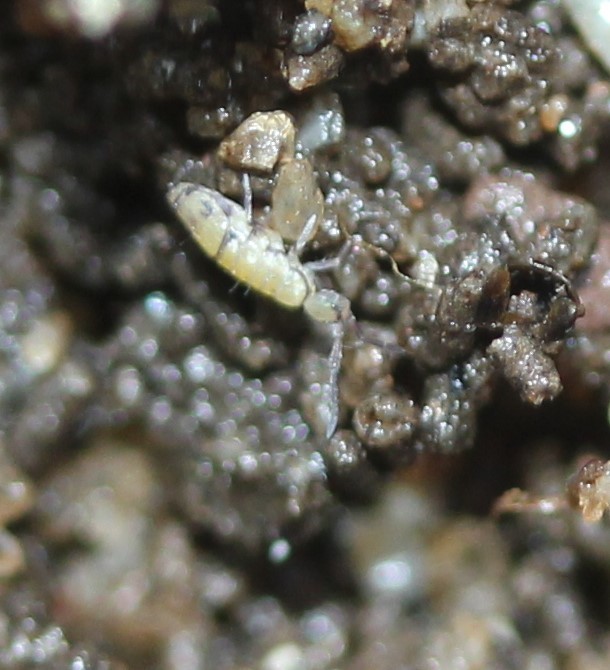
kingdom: Animalia
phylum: Arthropoda
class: Collembola
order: Entomobryomorpha
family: Entomobryidae
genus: Entomobrya
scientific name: Entomobrya ligata
